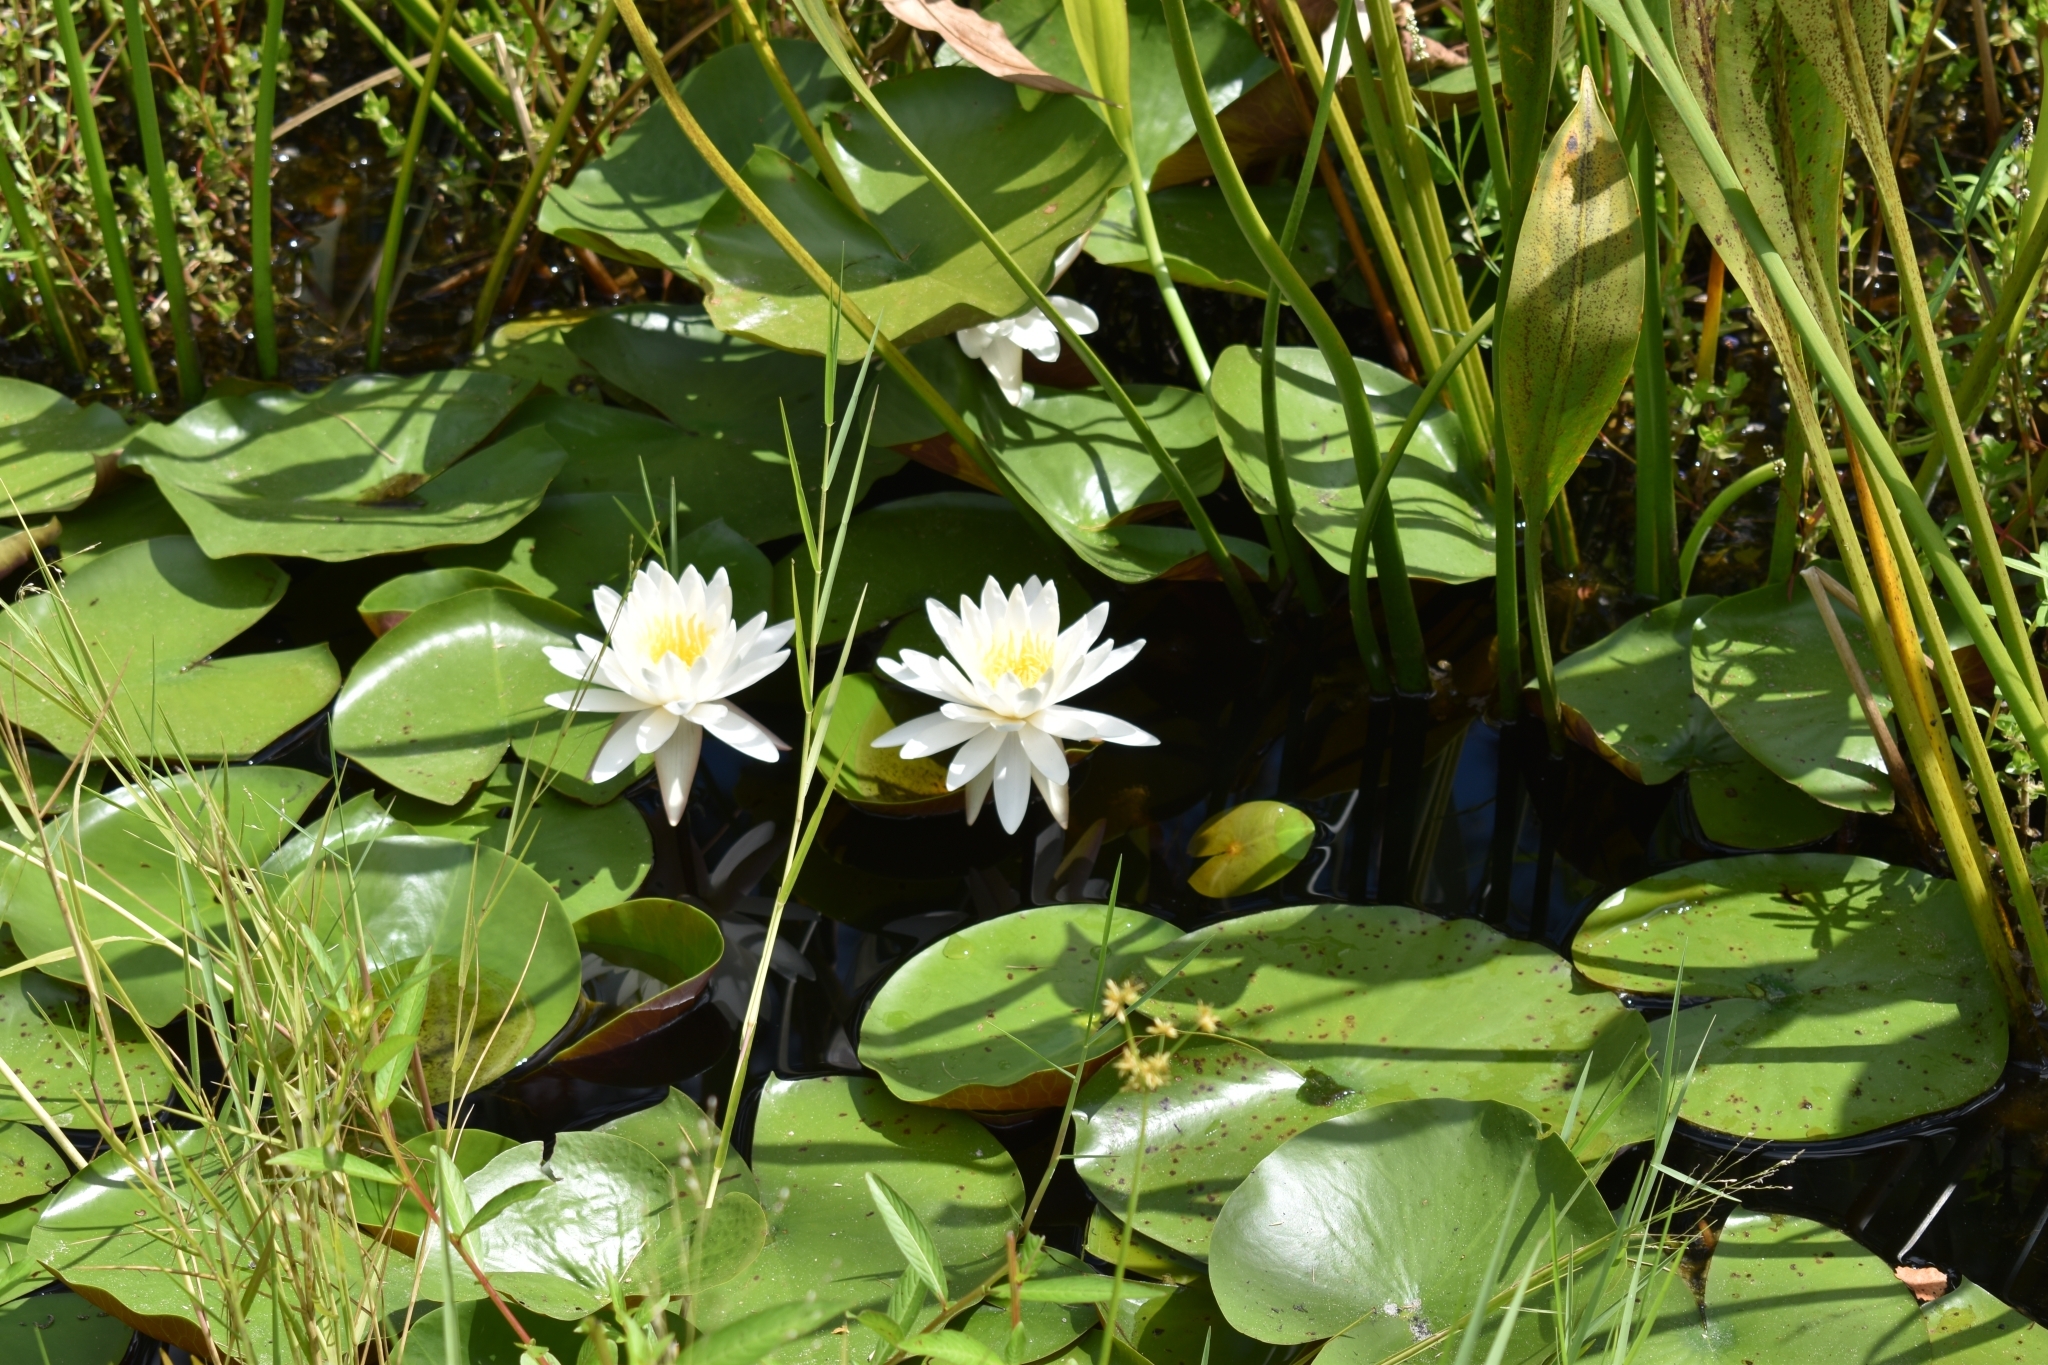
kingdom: Plantae
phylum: Tracheophyta
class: Magnoliopsida
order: Nymphaeales
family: Nymphaeaceae
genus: Nymphaea
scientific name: Nymphaea odorata
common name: Fragrant water-lily
